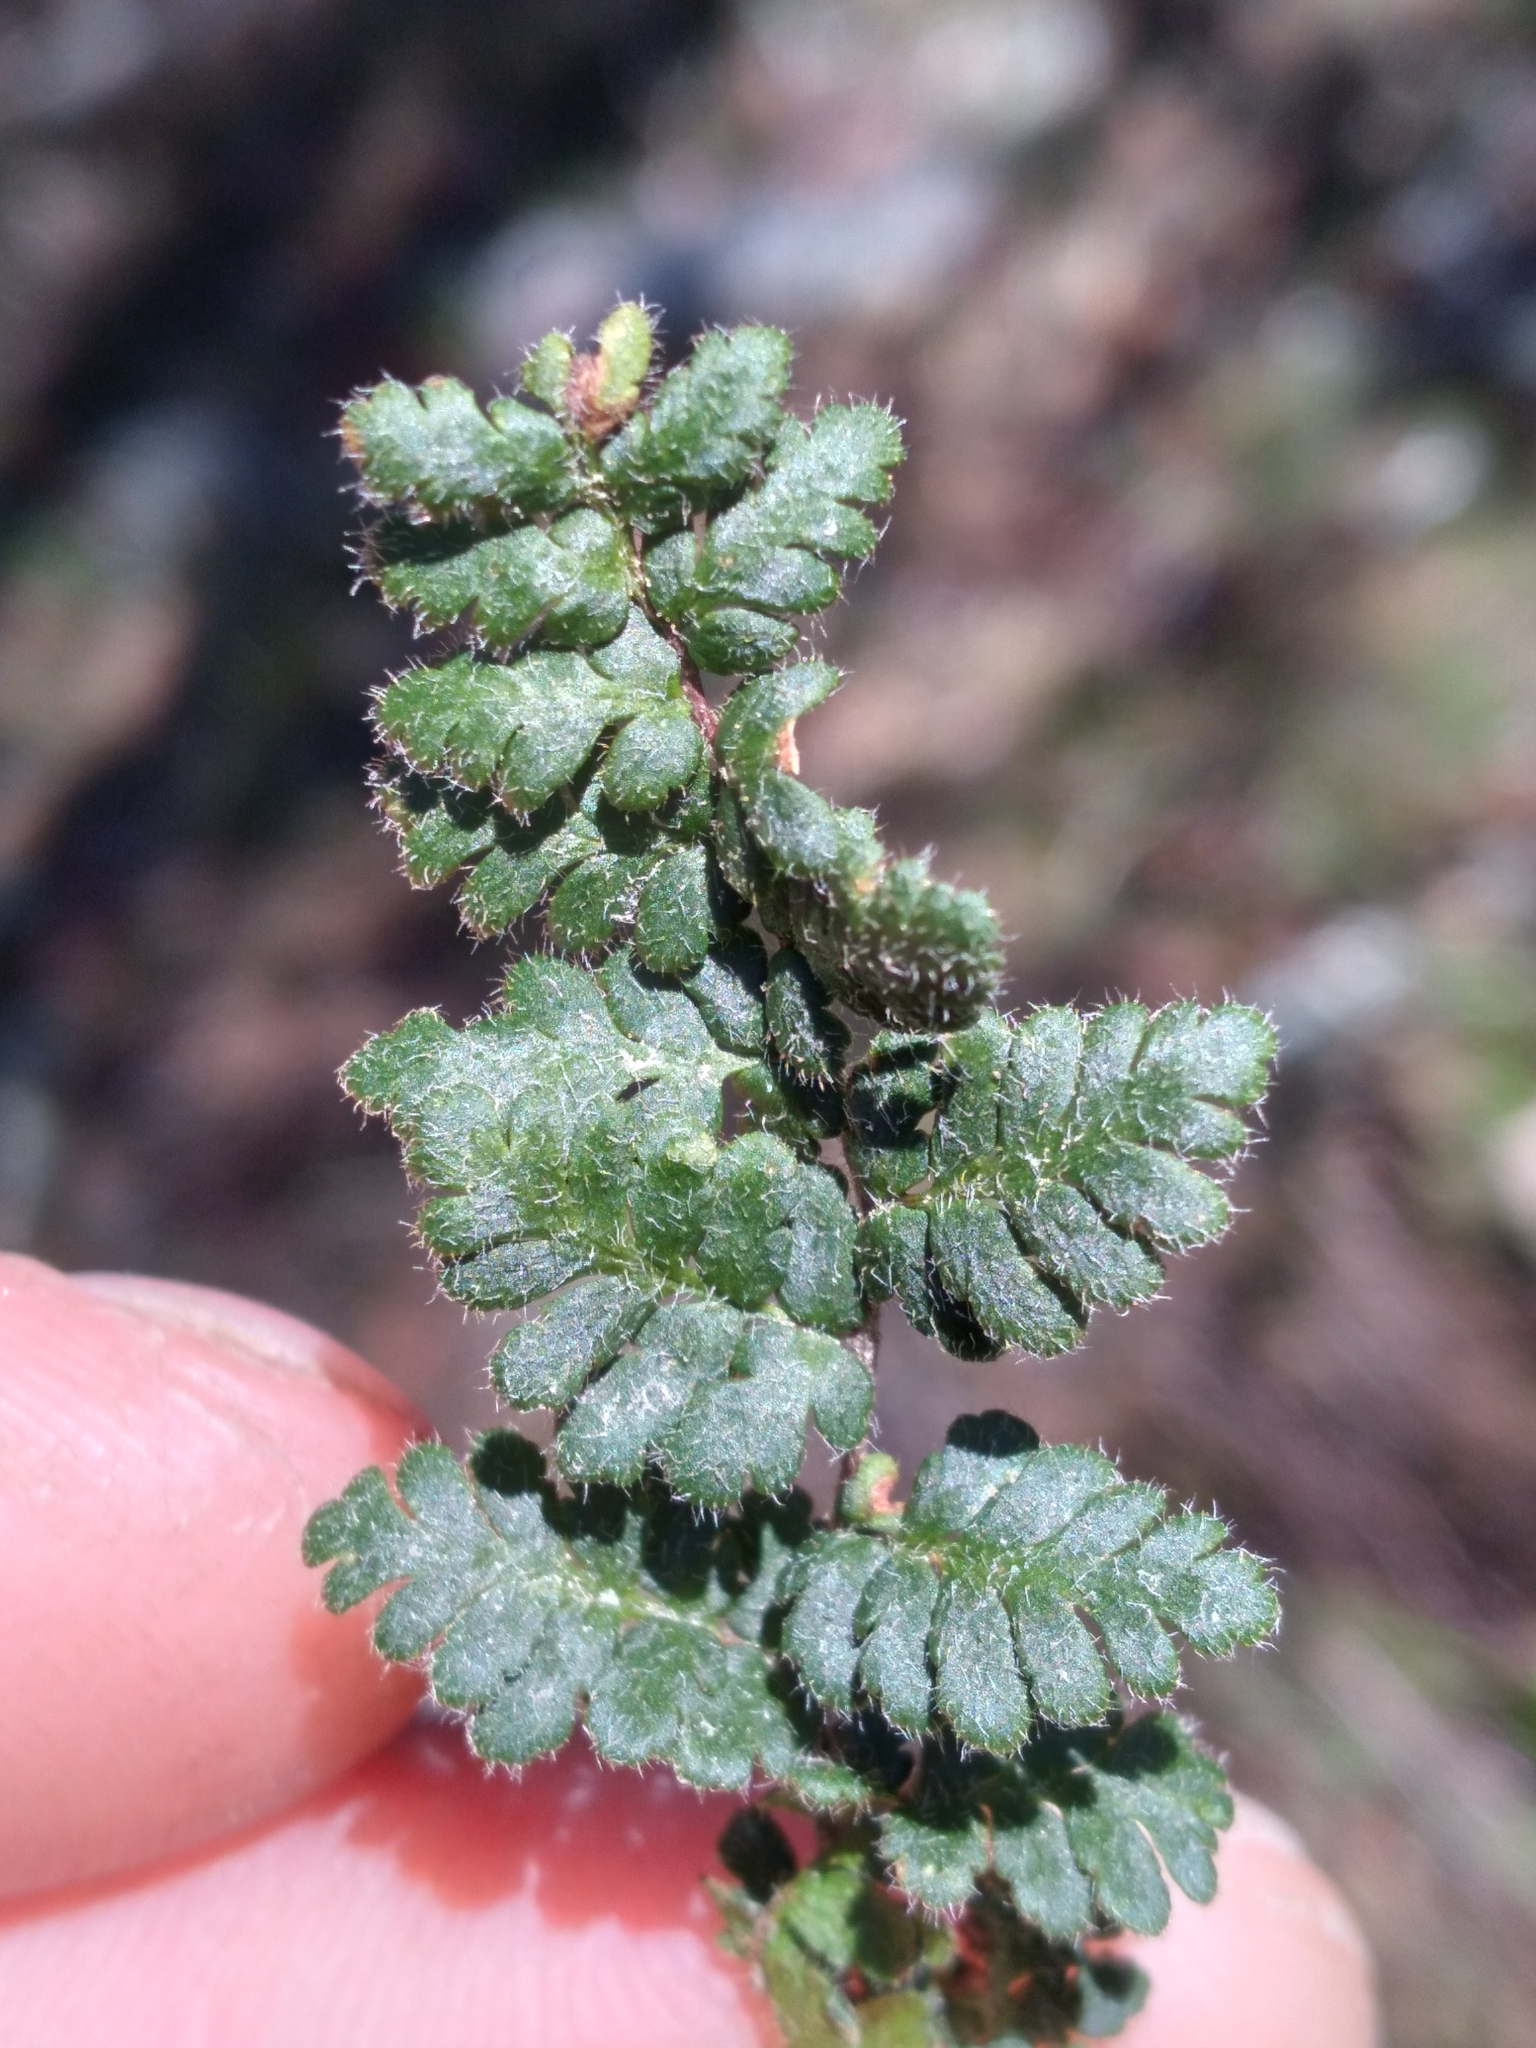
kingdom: Plantae
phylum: Tracheophyta
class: Polypodiopsida
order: Polypodiales
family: Pteridaceae
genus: Myriopteris
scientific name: Myriopteris lanosa
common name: Hairy lip fern
